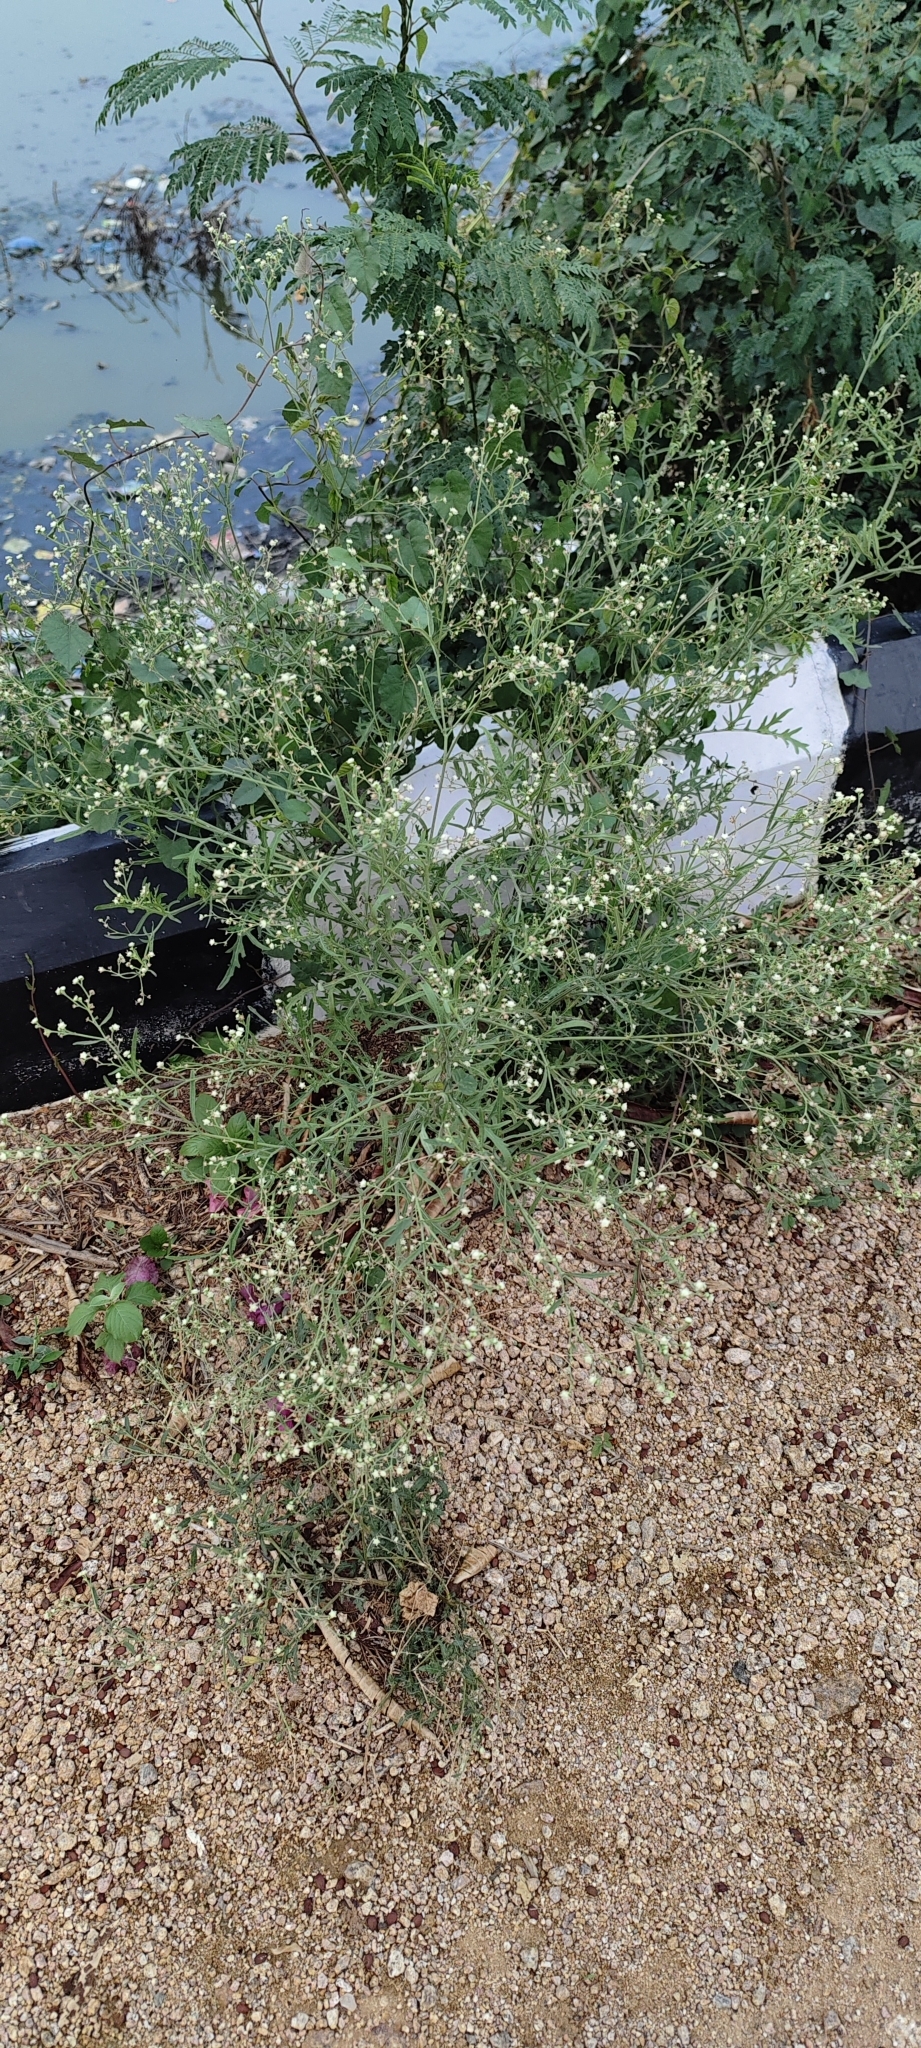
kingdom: Plantae
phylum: Tracheophyta
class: Magnoliopsida
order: Asterales
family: Asteraceae
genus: Parthenium
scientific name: Parthenium hysterophorus
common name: Santa maria feverfew
